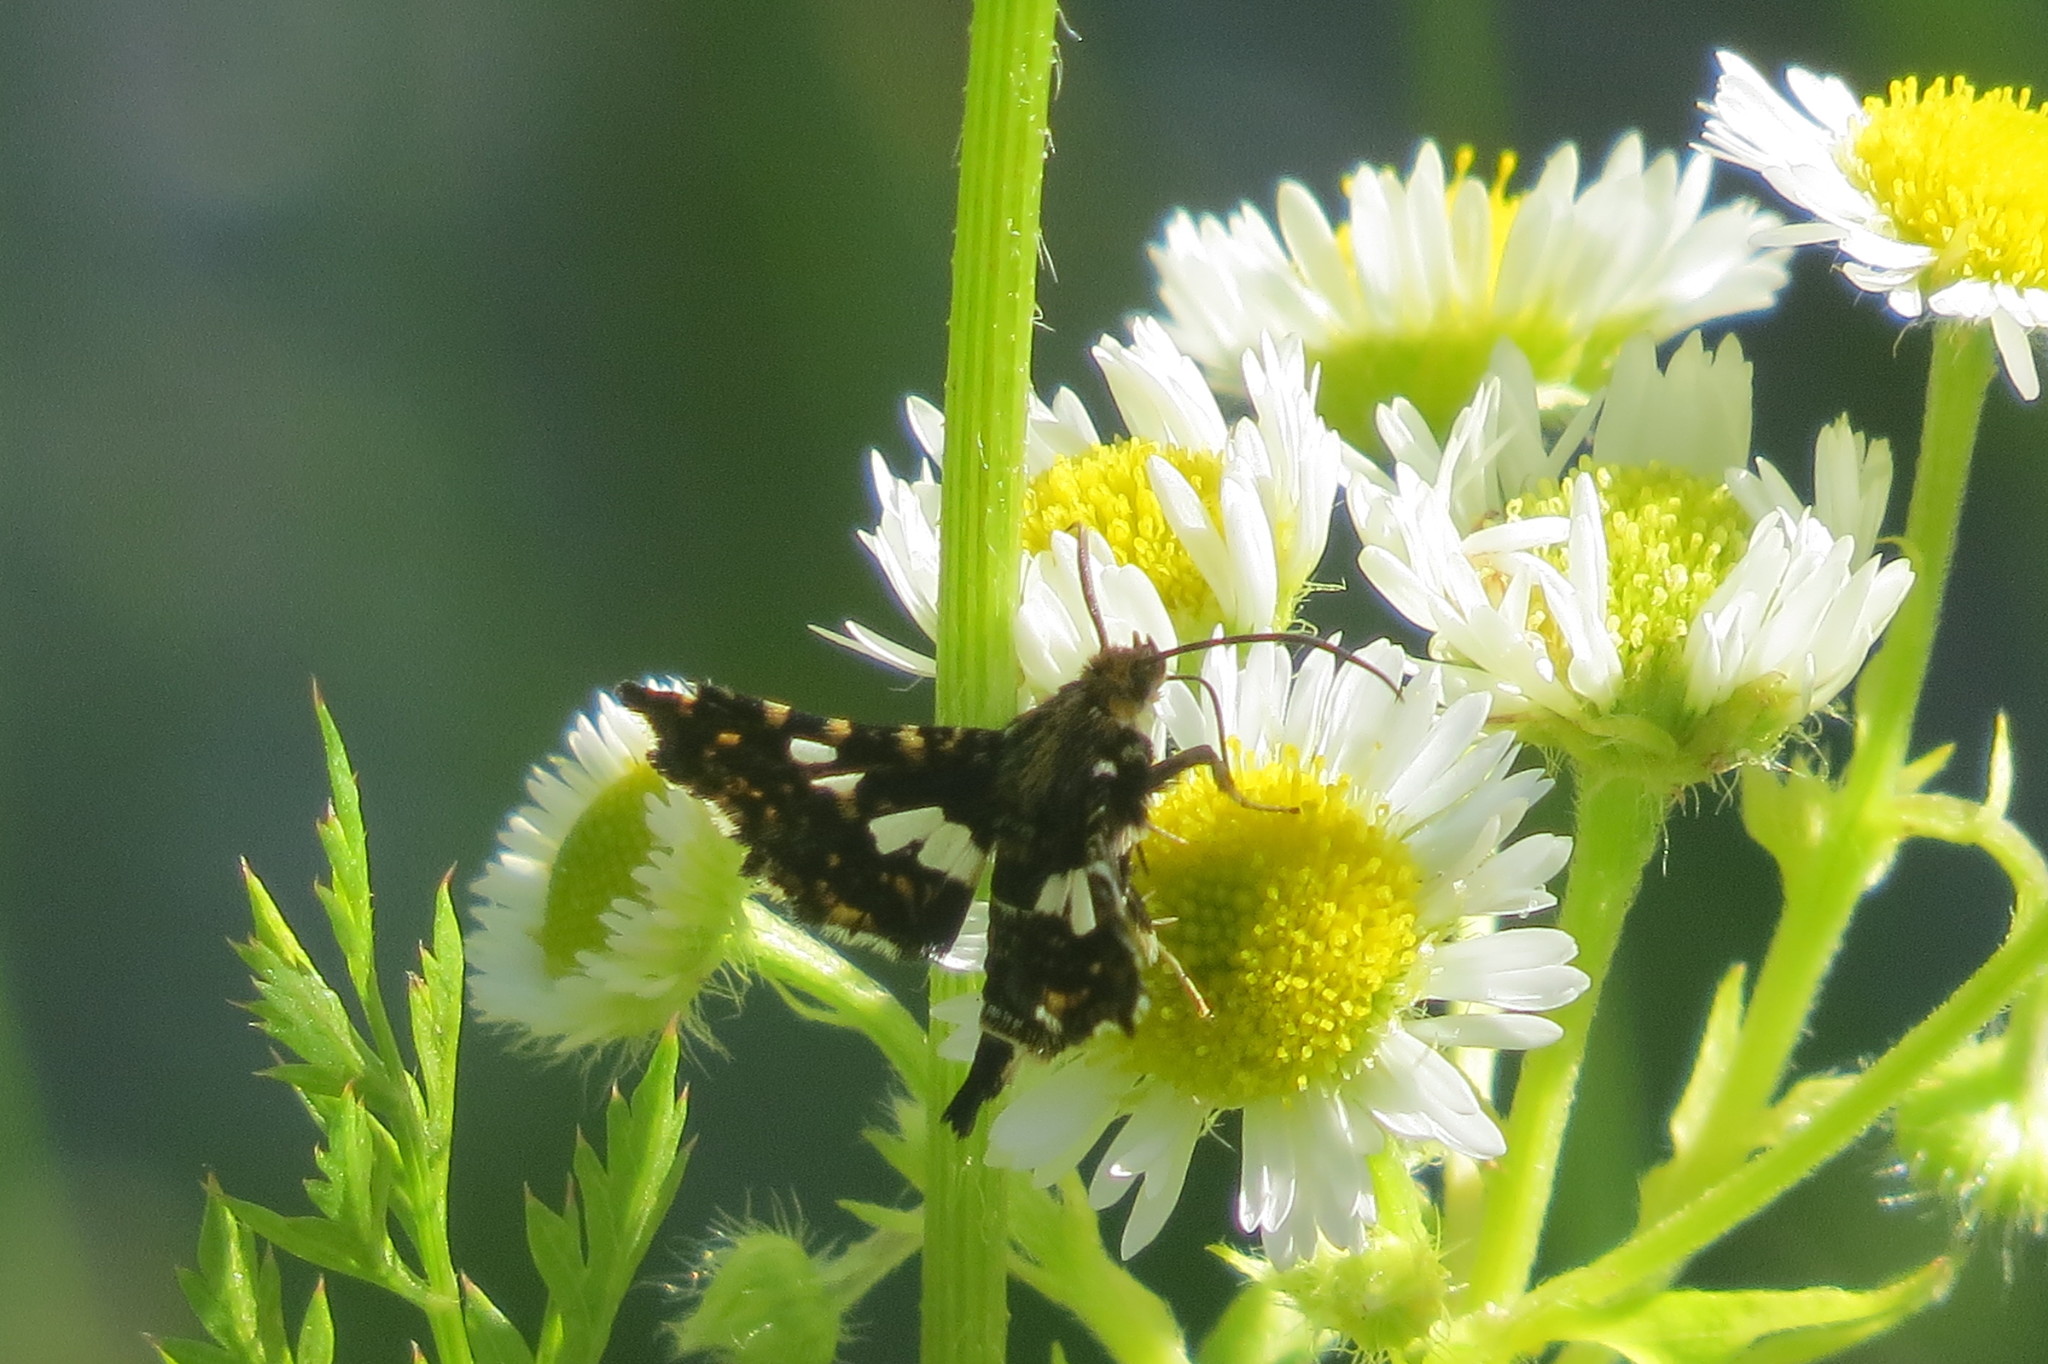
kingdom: Animalia
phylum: Arthropoda
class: Insecta
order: Lepidoptera
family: Thyrididae
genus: Thyris
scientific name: Thyris fenestrella
